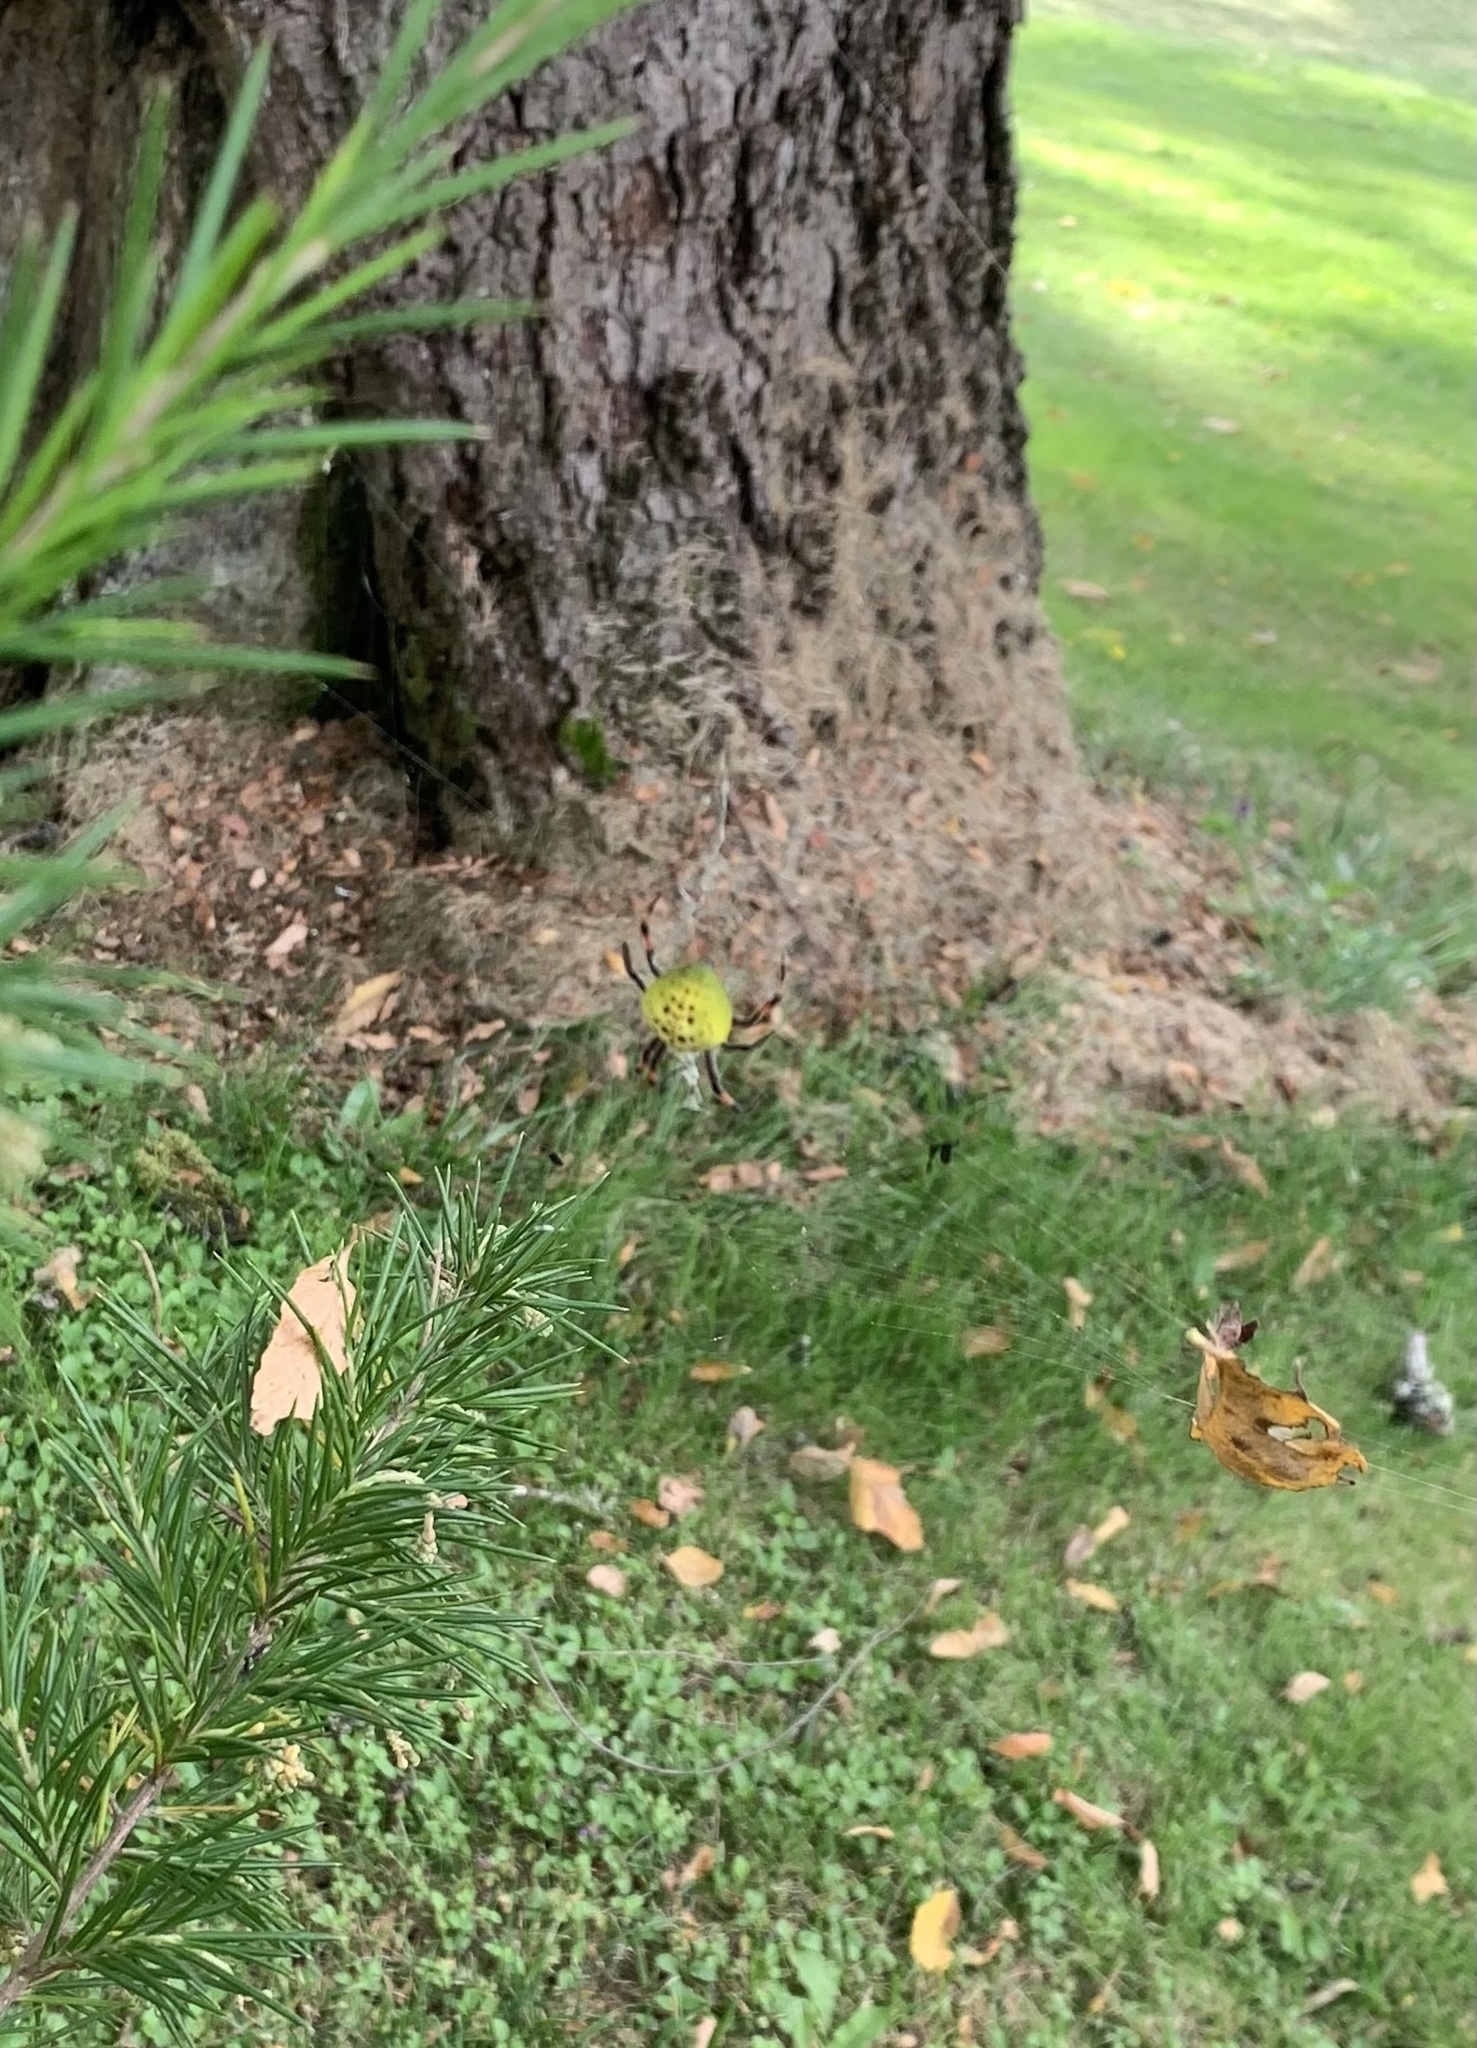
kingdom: Animalia
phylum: Arthropoda
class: Arachnida
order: Araneae
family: Araneidae
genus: Molinaranea
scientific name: Molinaranea magellanica
